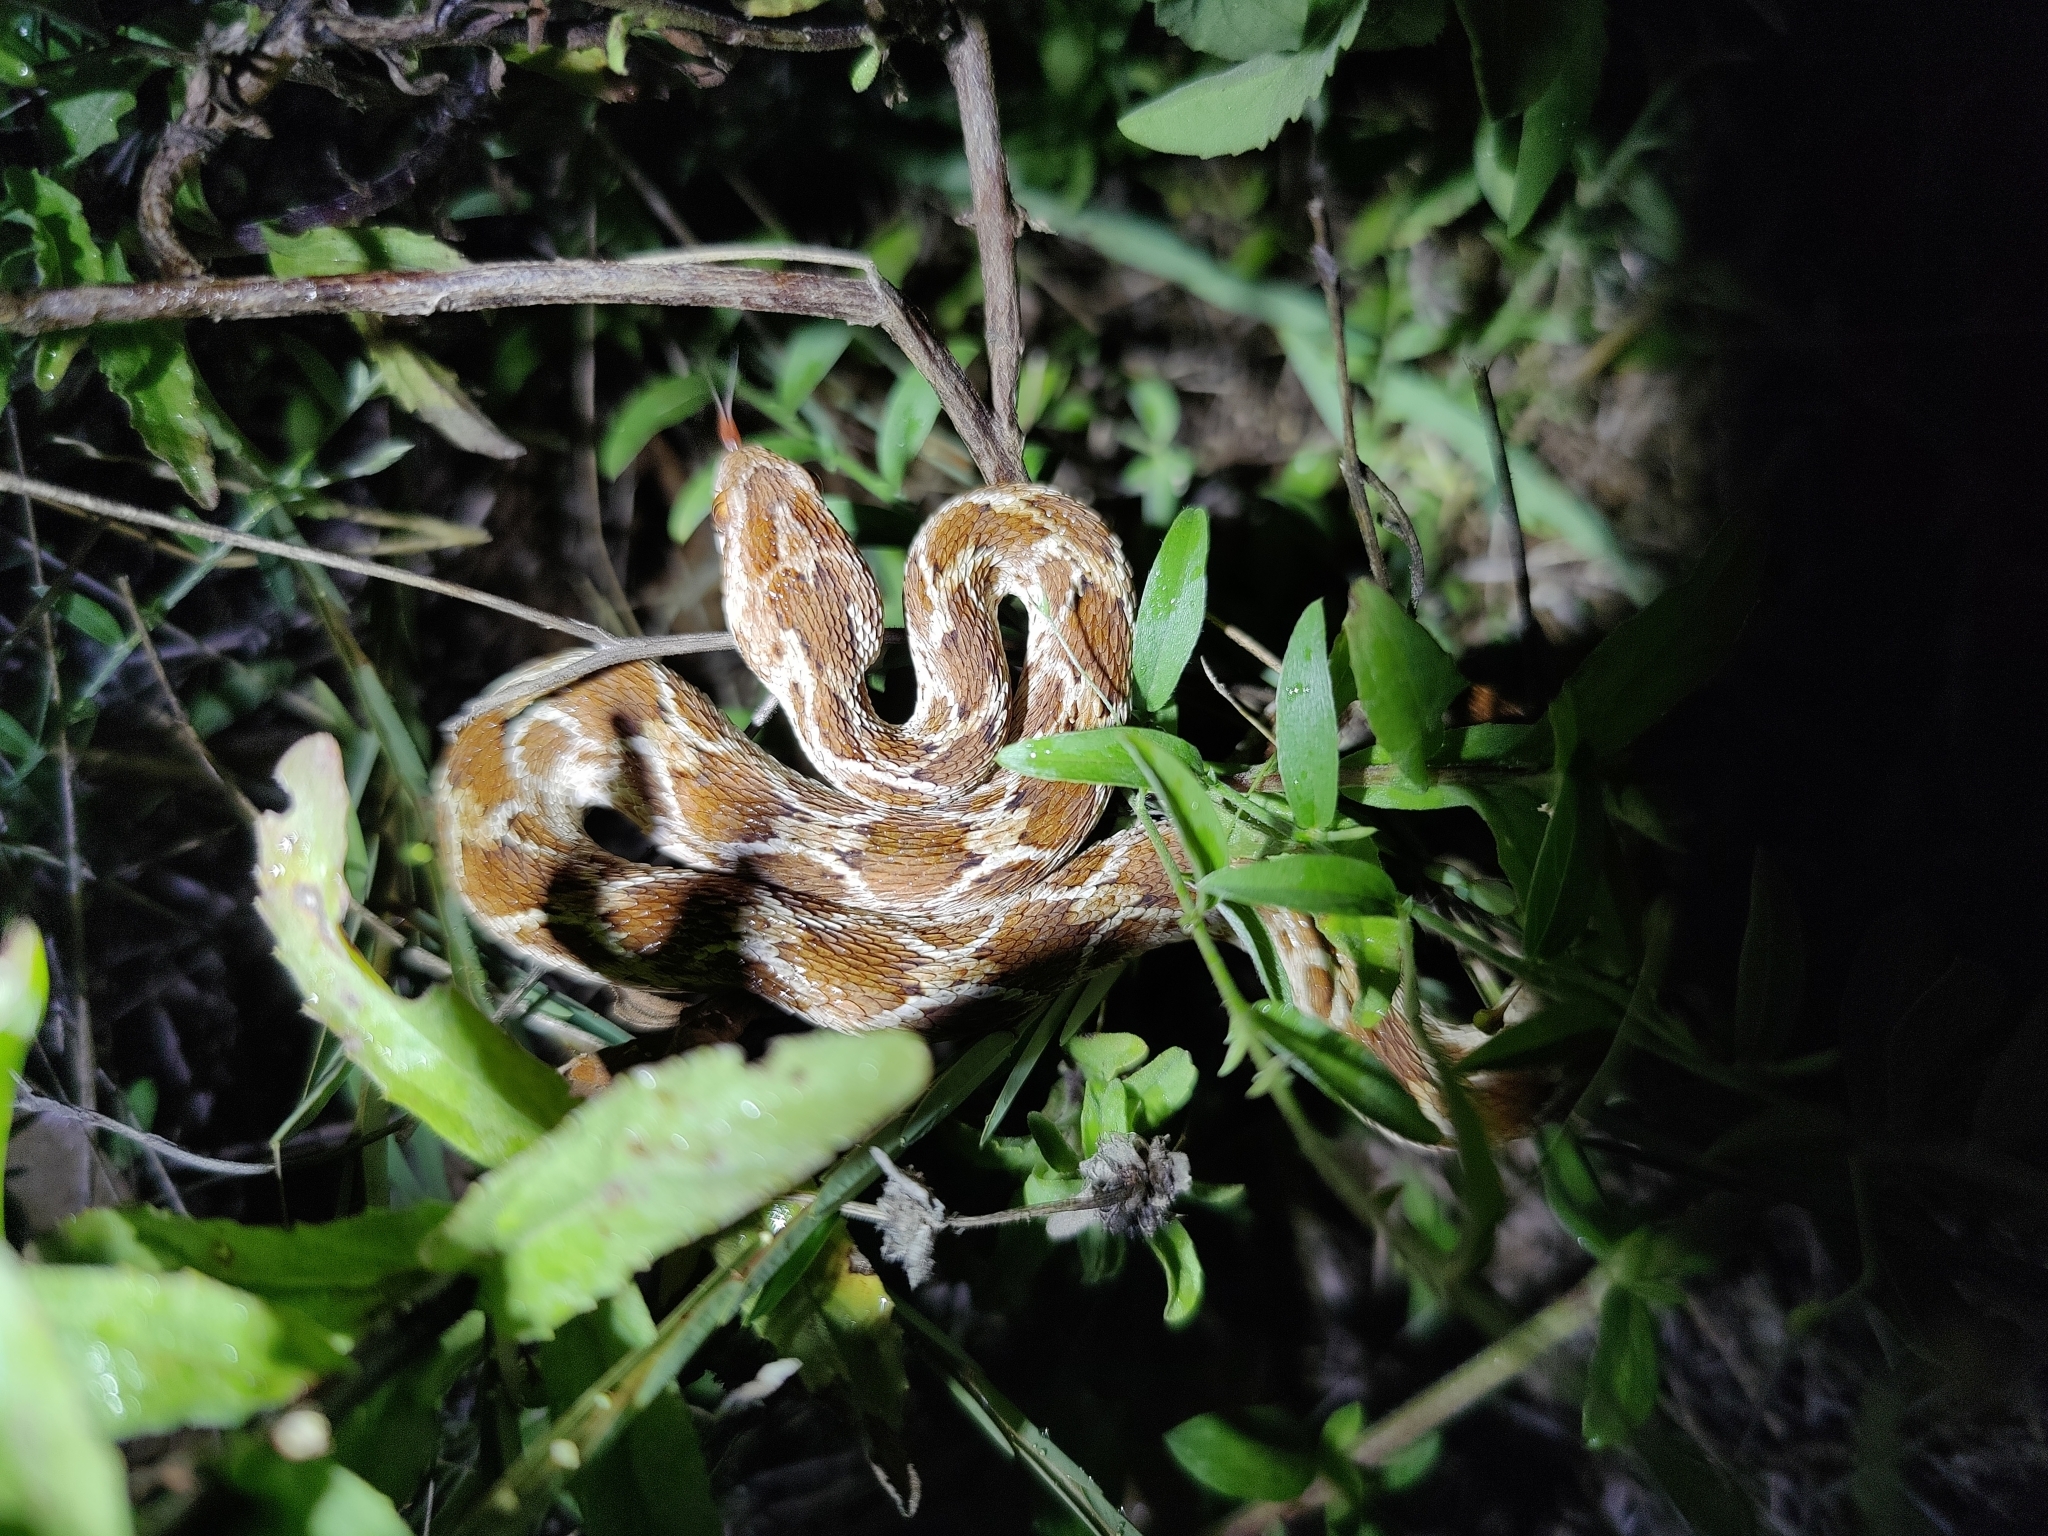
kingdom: Animalia
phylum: Chordata
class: Squamata
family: Viperidae
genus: Echis
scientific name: Echis carinatus
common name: Saw-scaled viper
